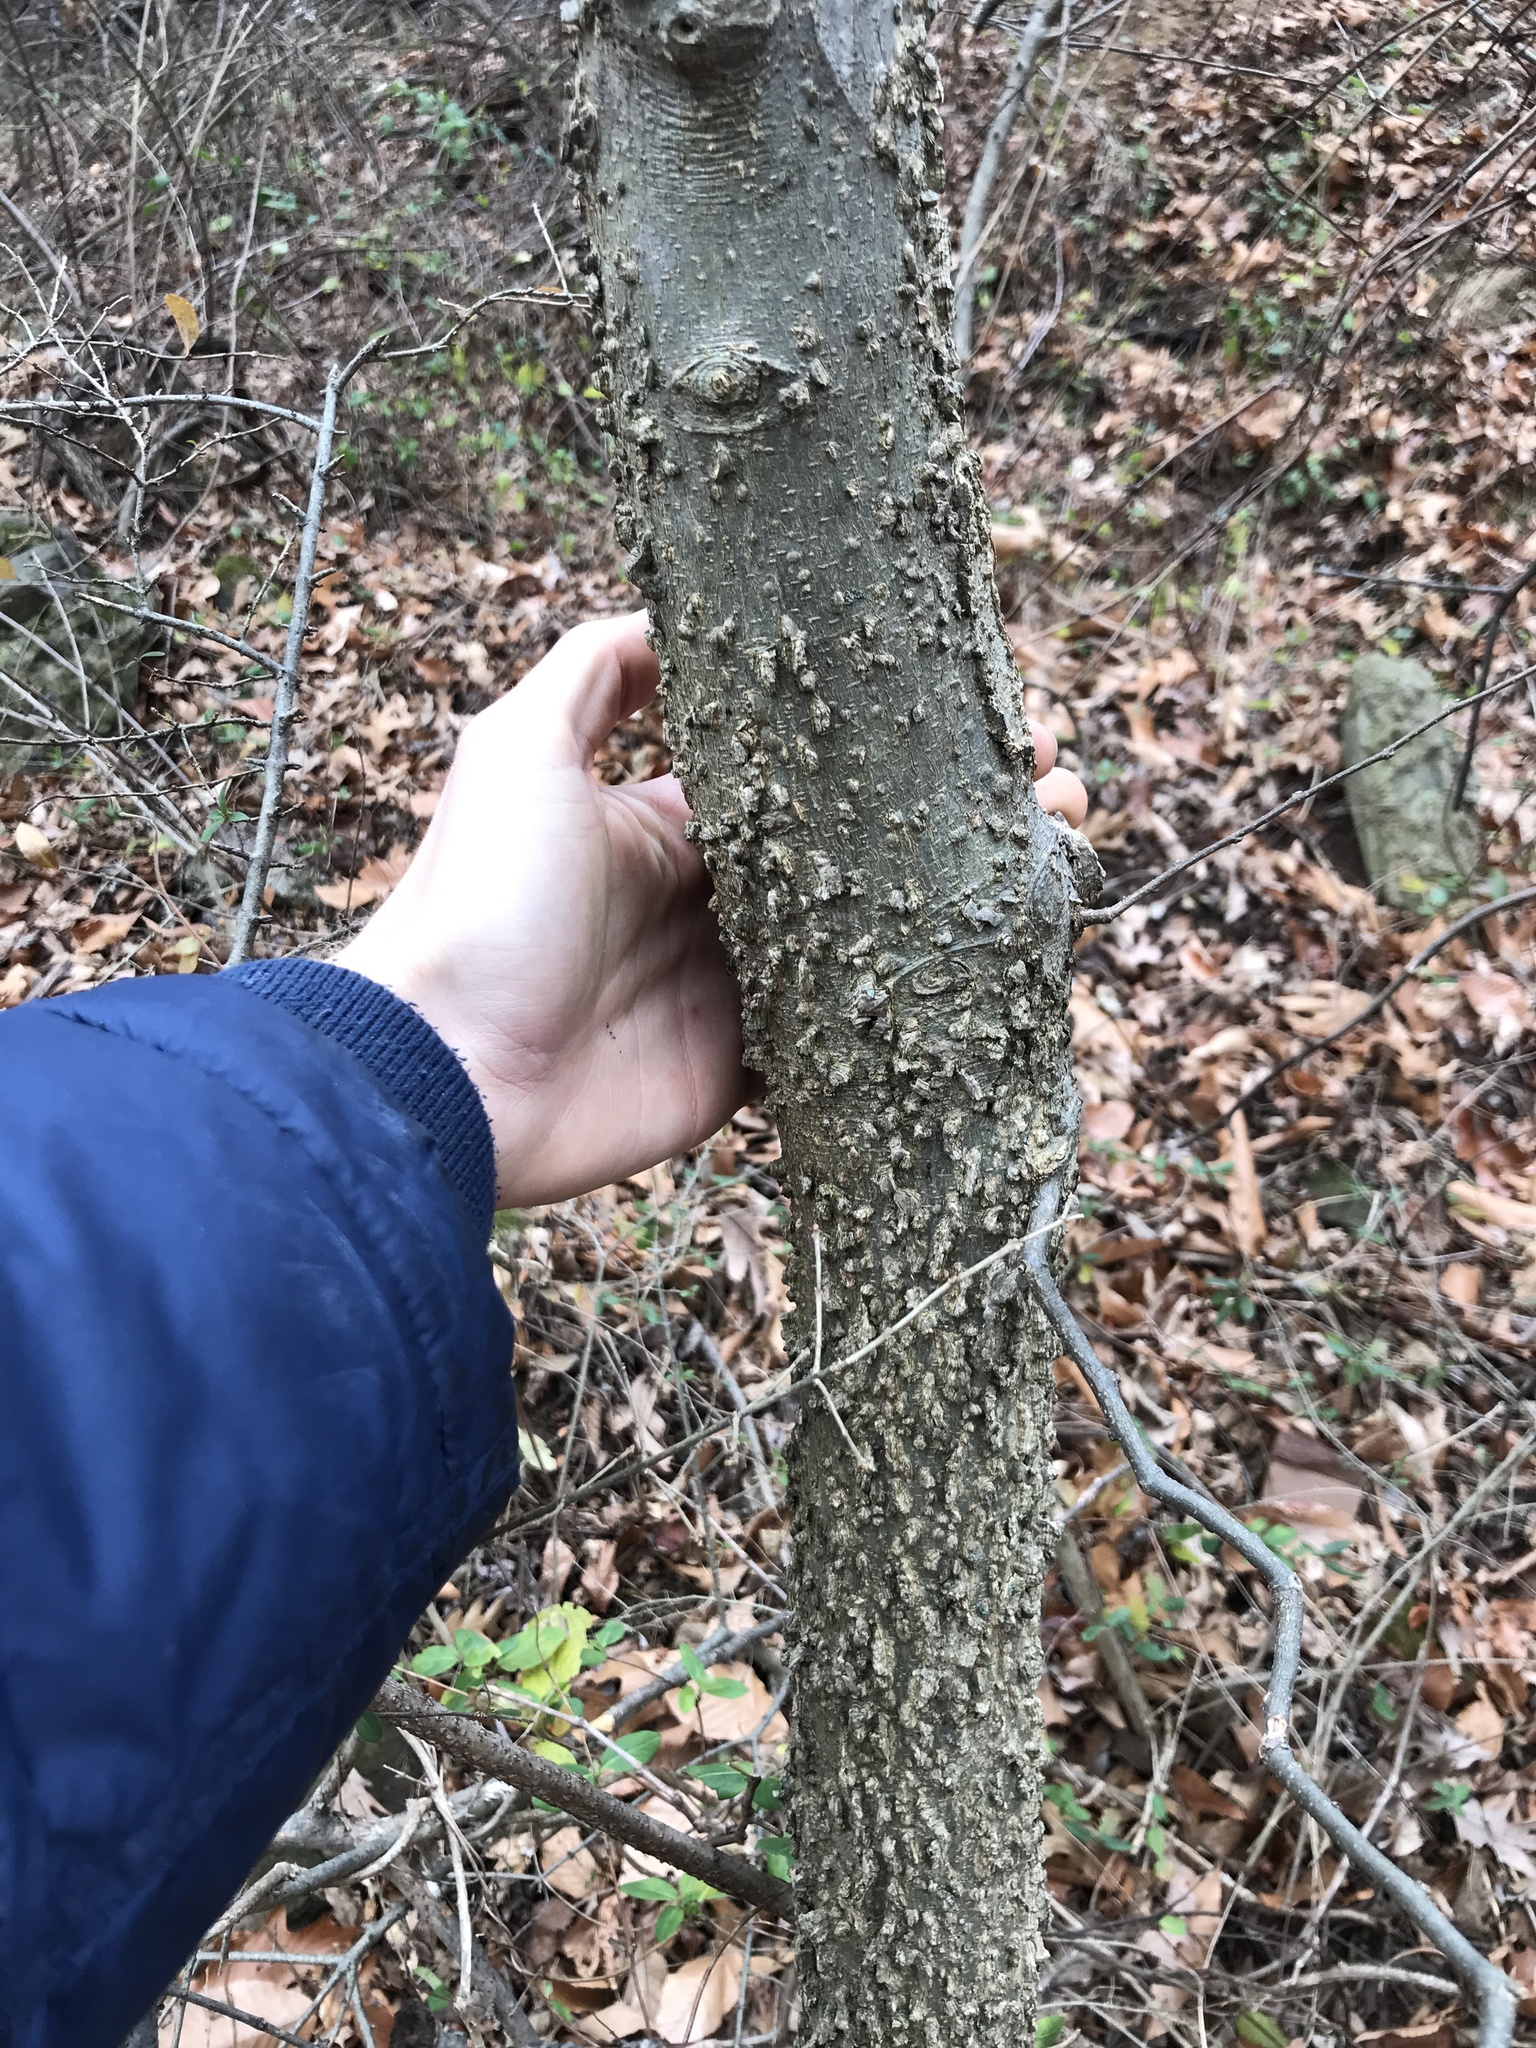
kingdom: Plantae
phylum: Tracheophyta
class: Magnoliopsida
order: Rosales
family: Cannabaceae
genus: Celtis
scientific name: Celtis occidentalis
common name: Common hackberry
